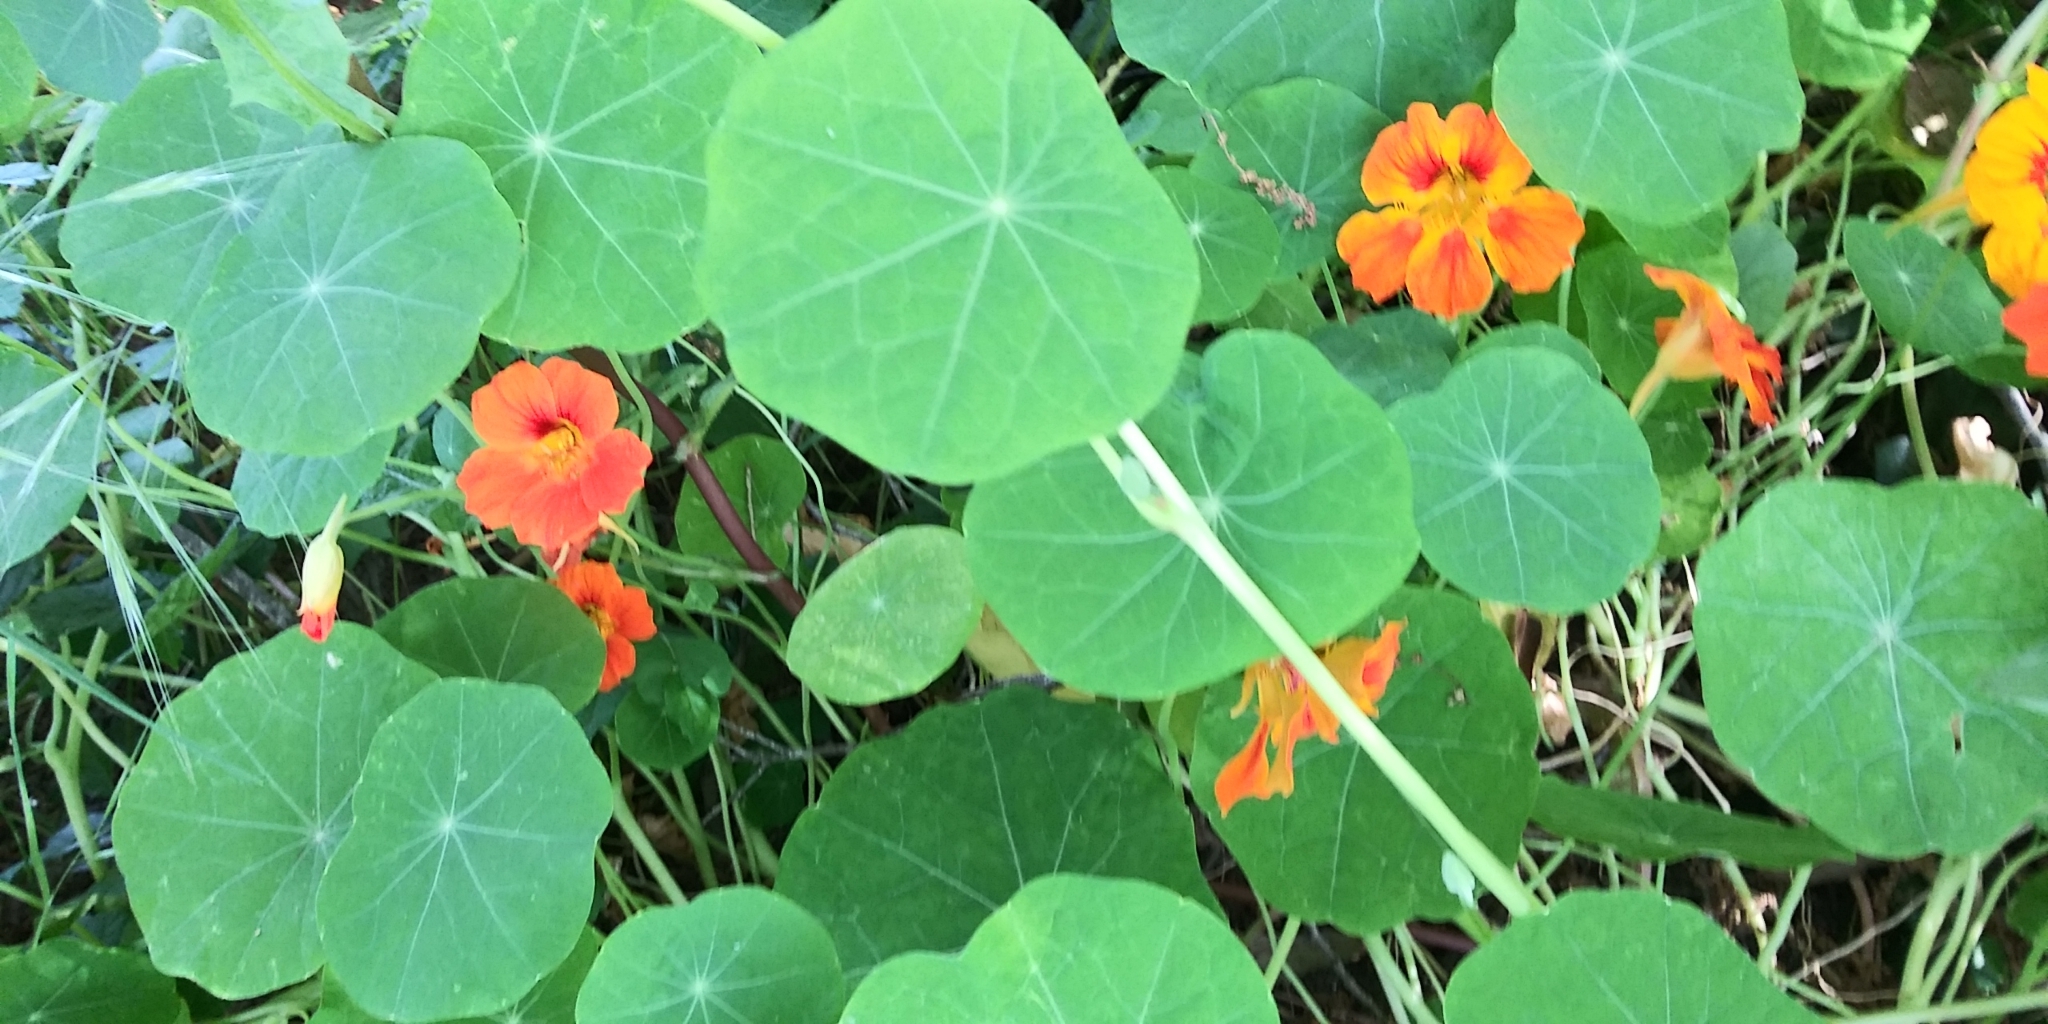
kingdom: Plantae
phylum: Tracheophyta
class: Magnoliopsida
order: Brassicales
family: Tropaeolaceae
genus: Tropaeolum
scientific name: Tropaeolum majus
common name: Nasturtium
